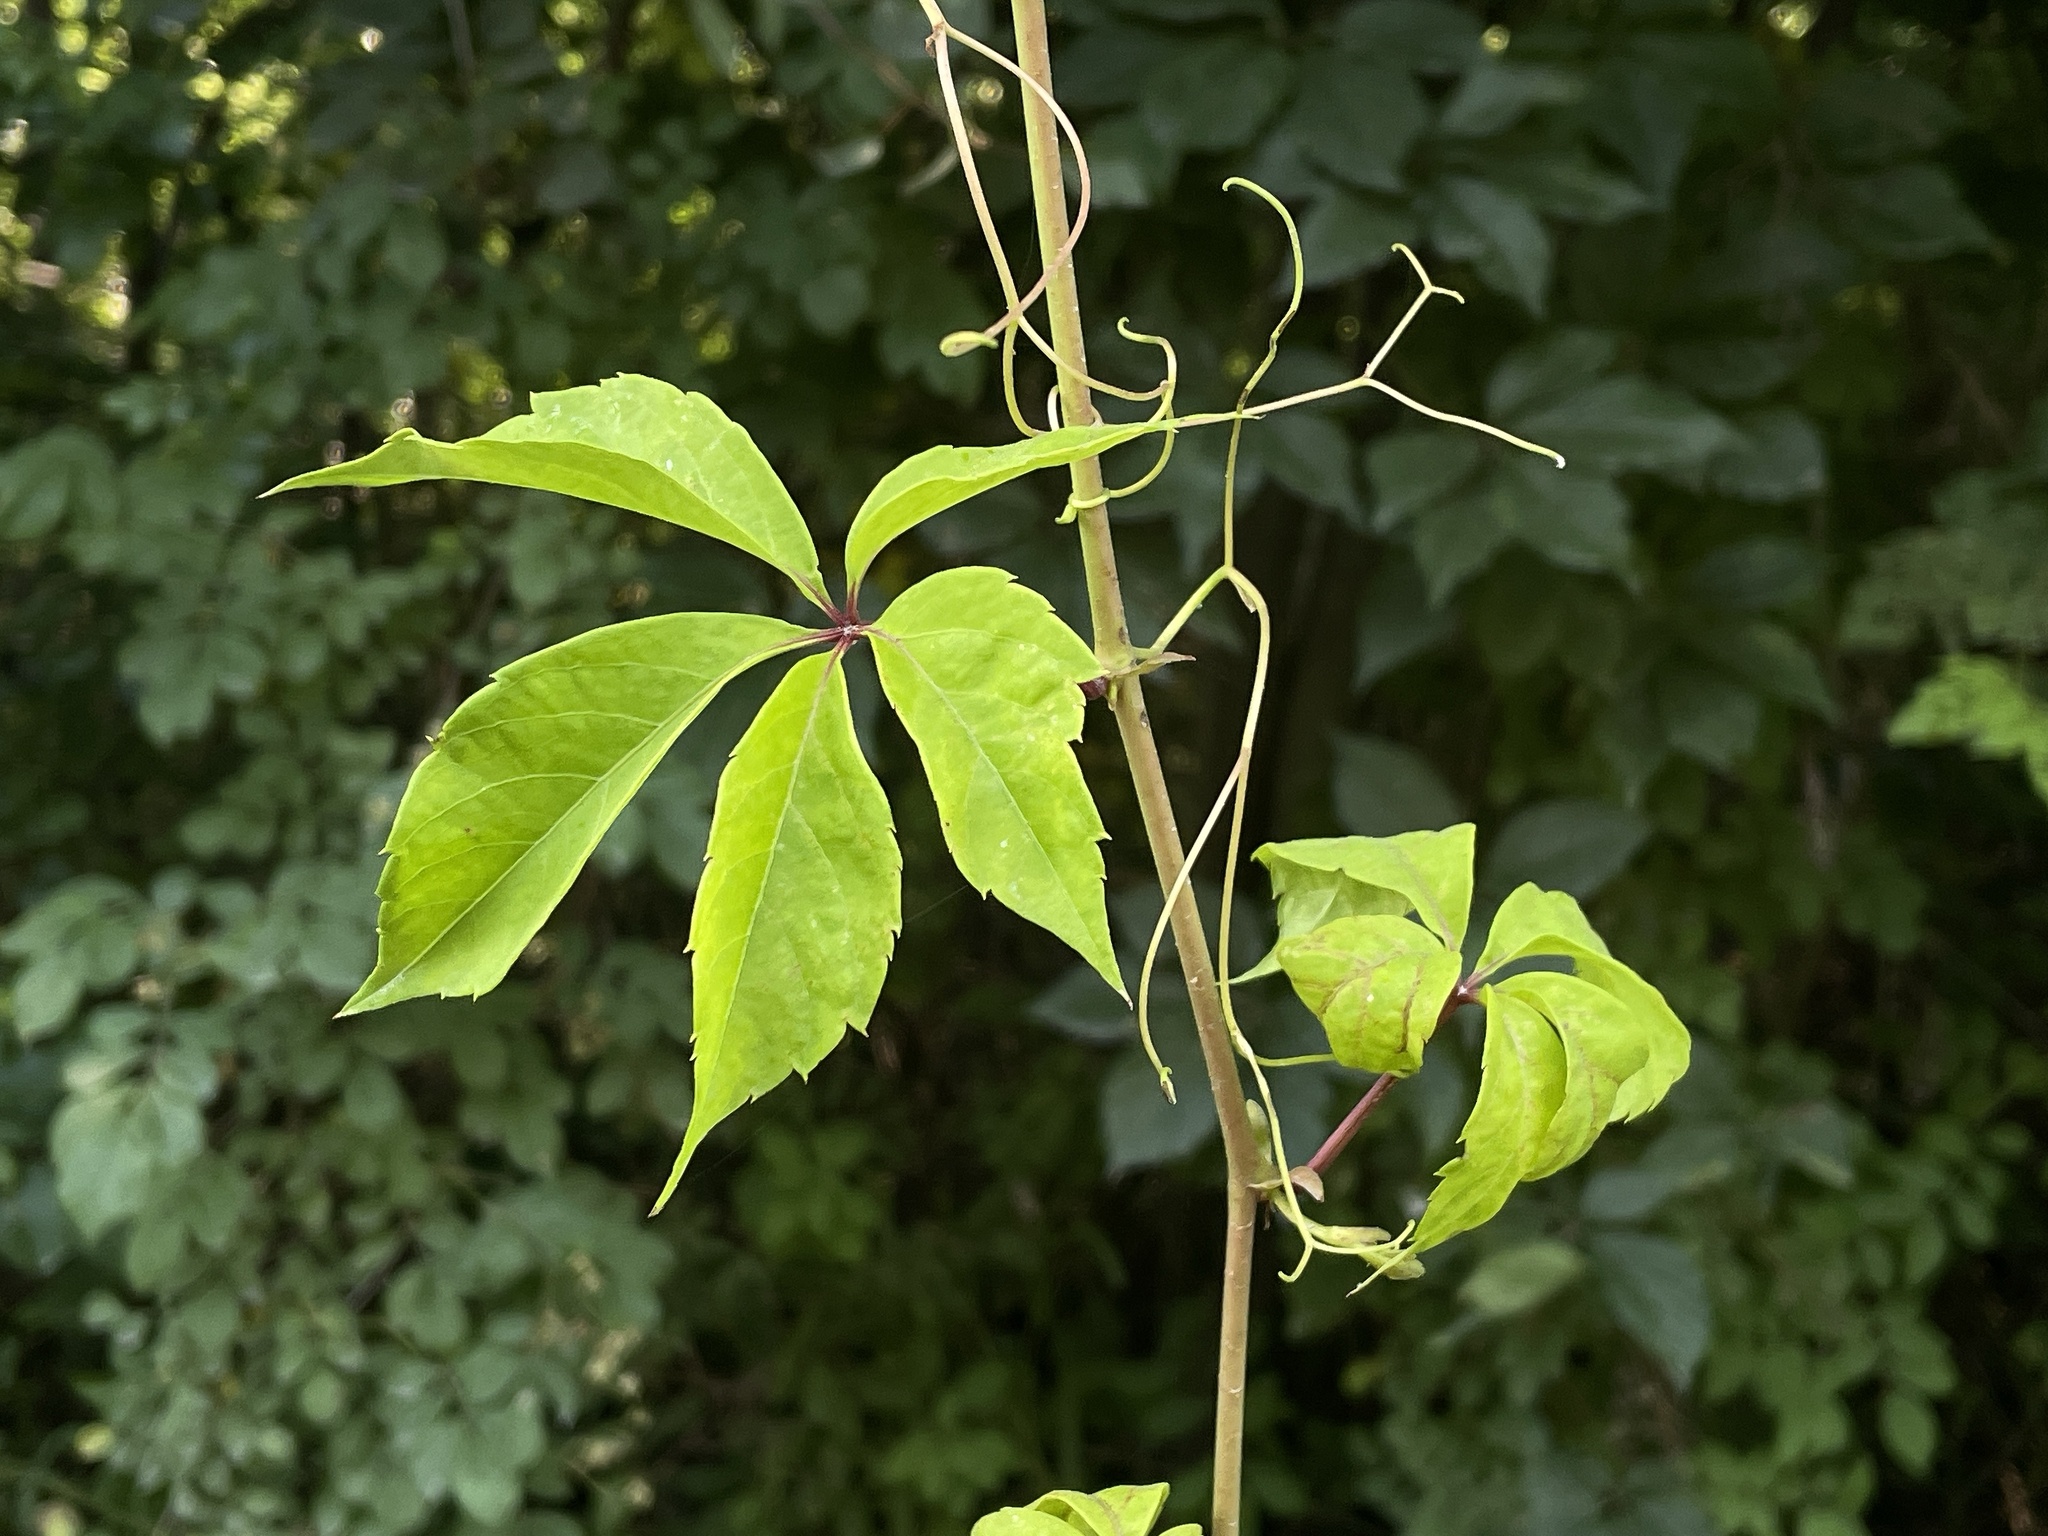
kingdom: Plantae
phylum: Tracheophyta
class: Magnoliopsida
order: Vitales
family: Vitaceae
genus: Parthenocissus
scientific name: Parthenocissus quinquefolia
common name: Virginia-creeper
